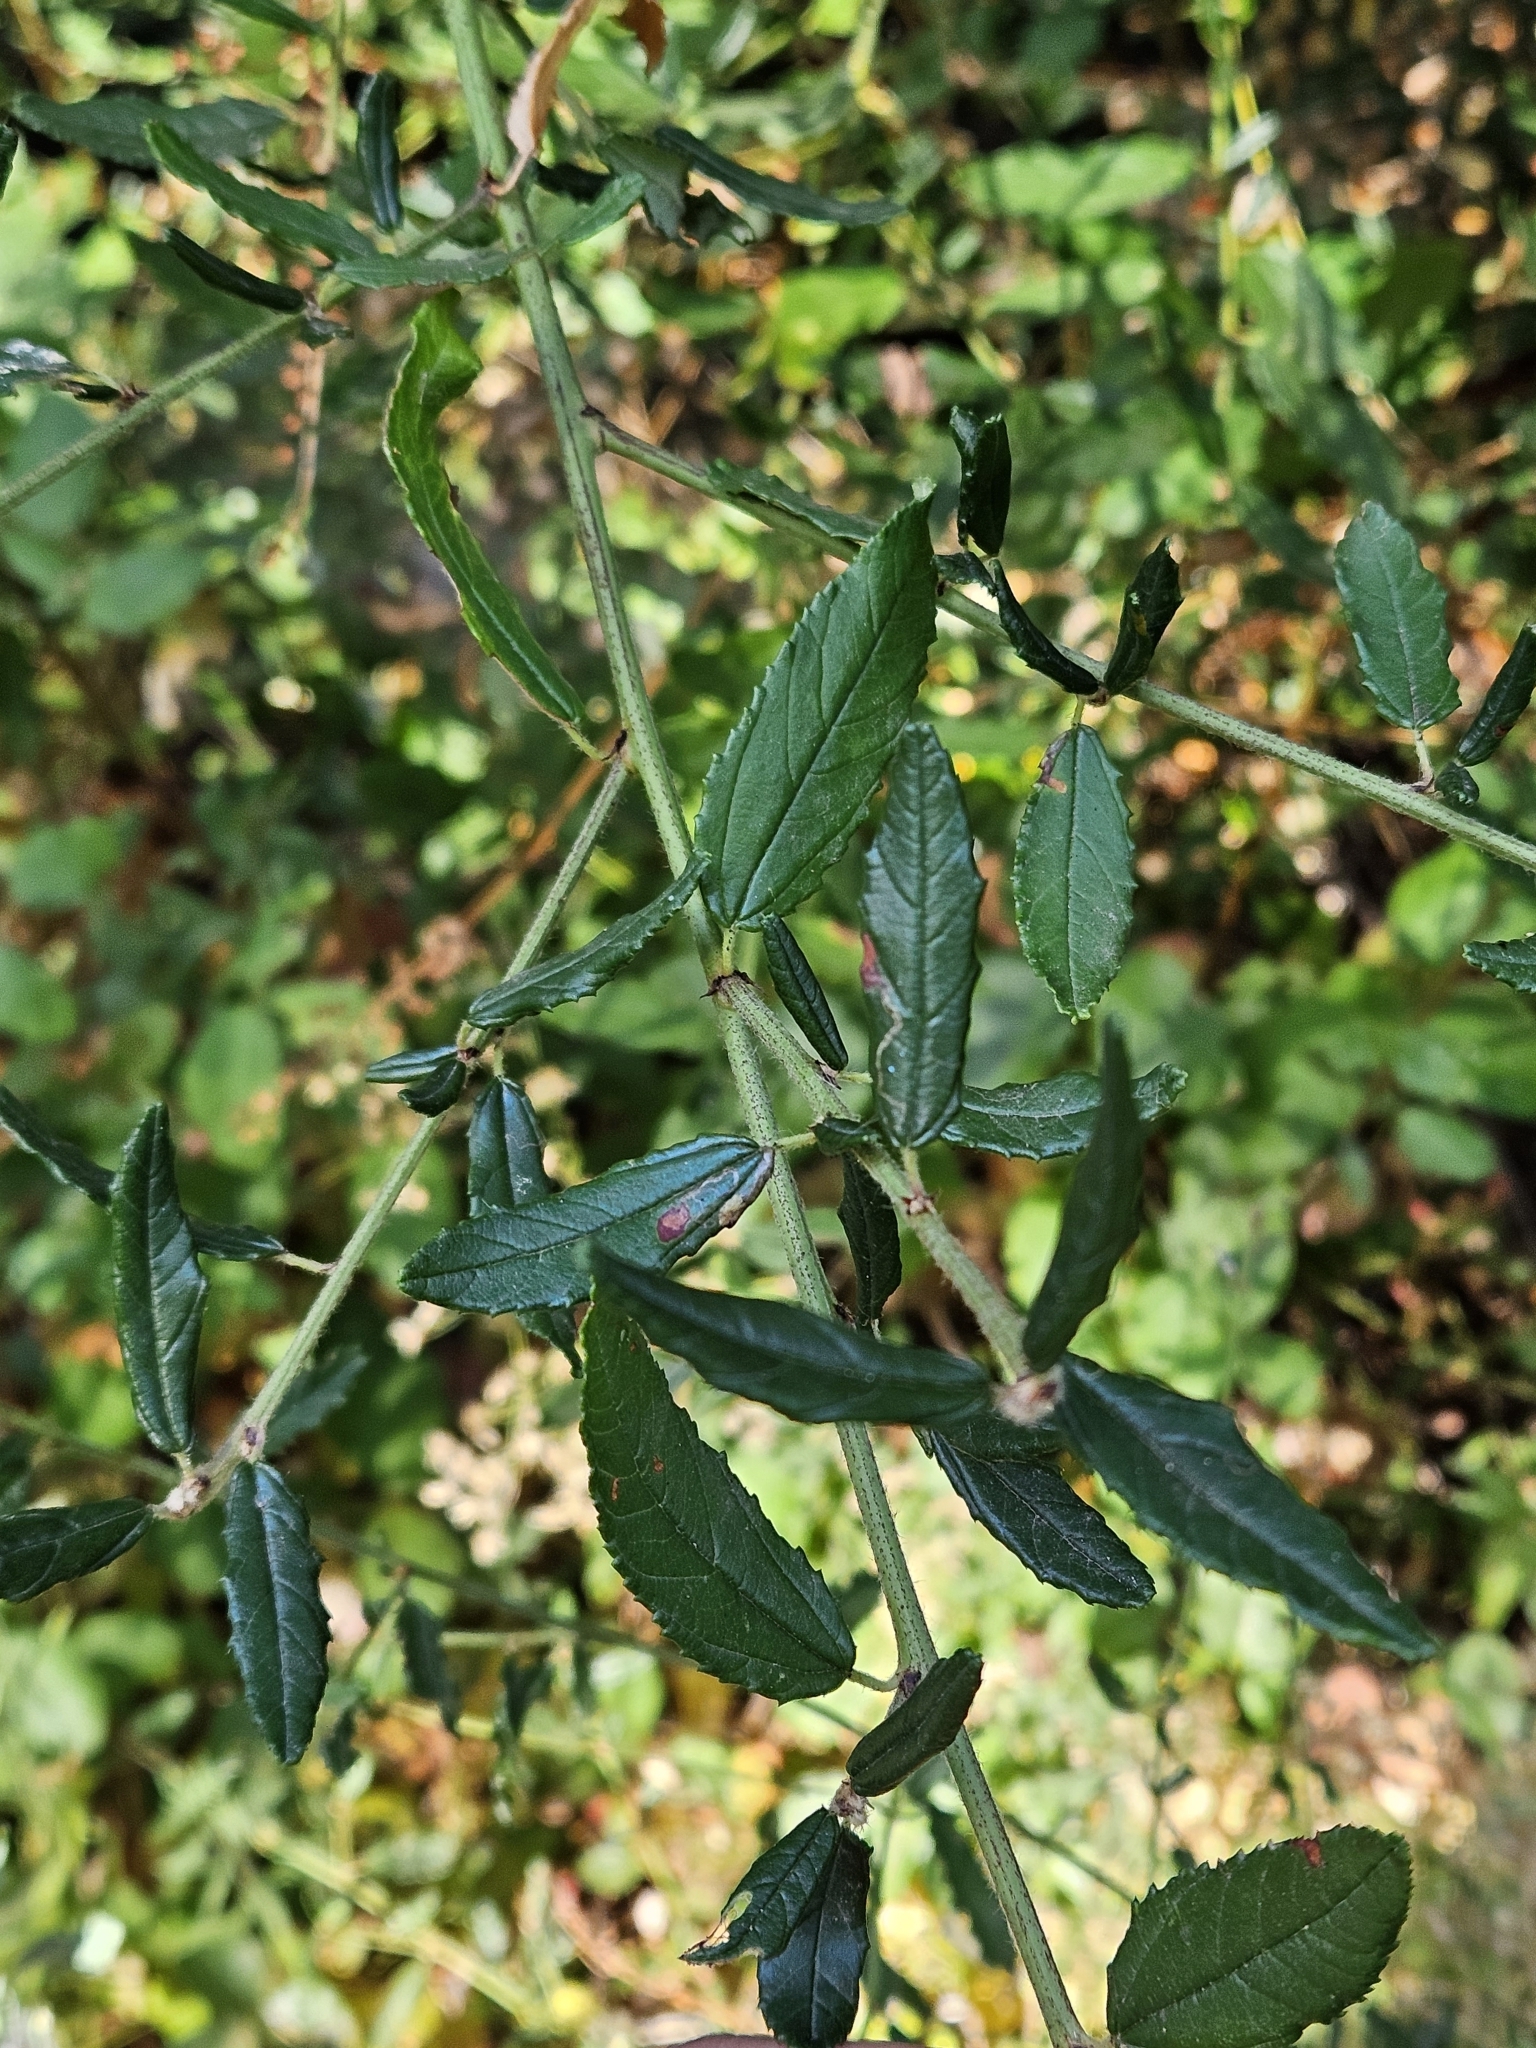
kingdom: Plantae
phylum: Tracheophyta
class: Magnoliopsida
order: Rosales
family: Rhamnaceae
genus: Ceanothus
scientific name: Ceanothus parryi
